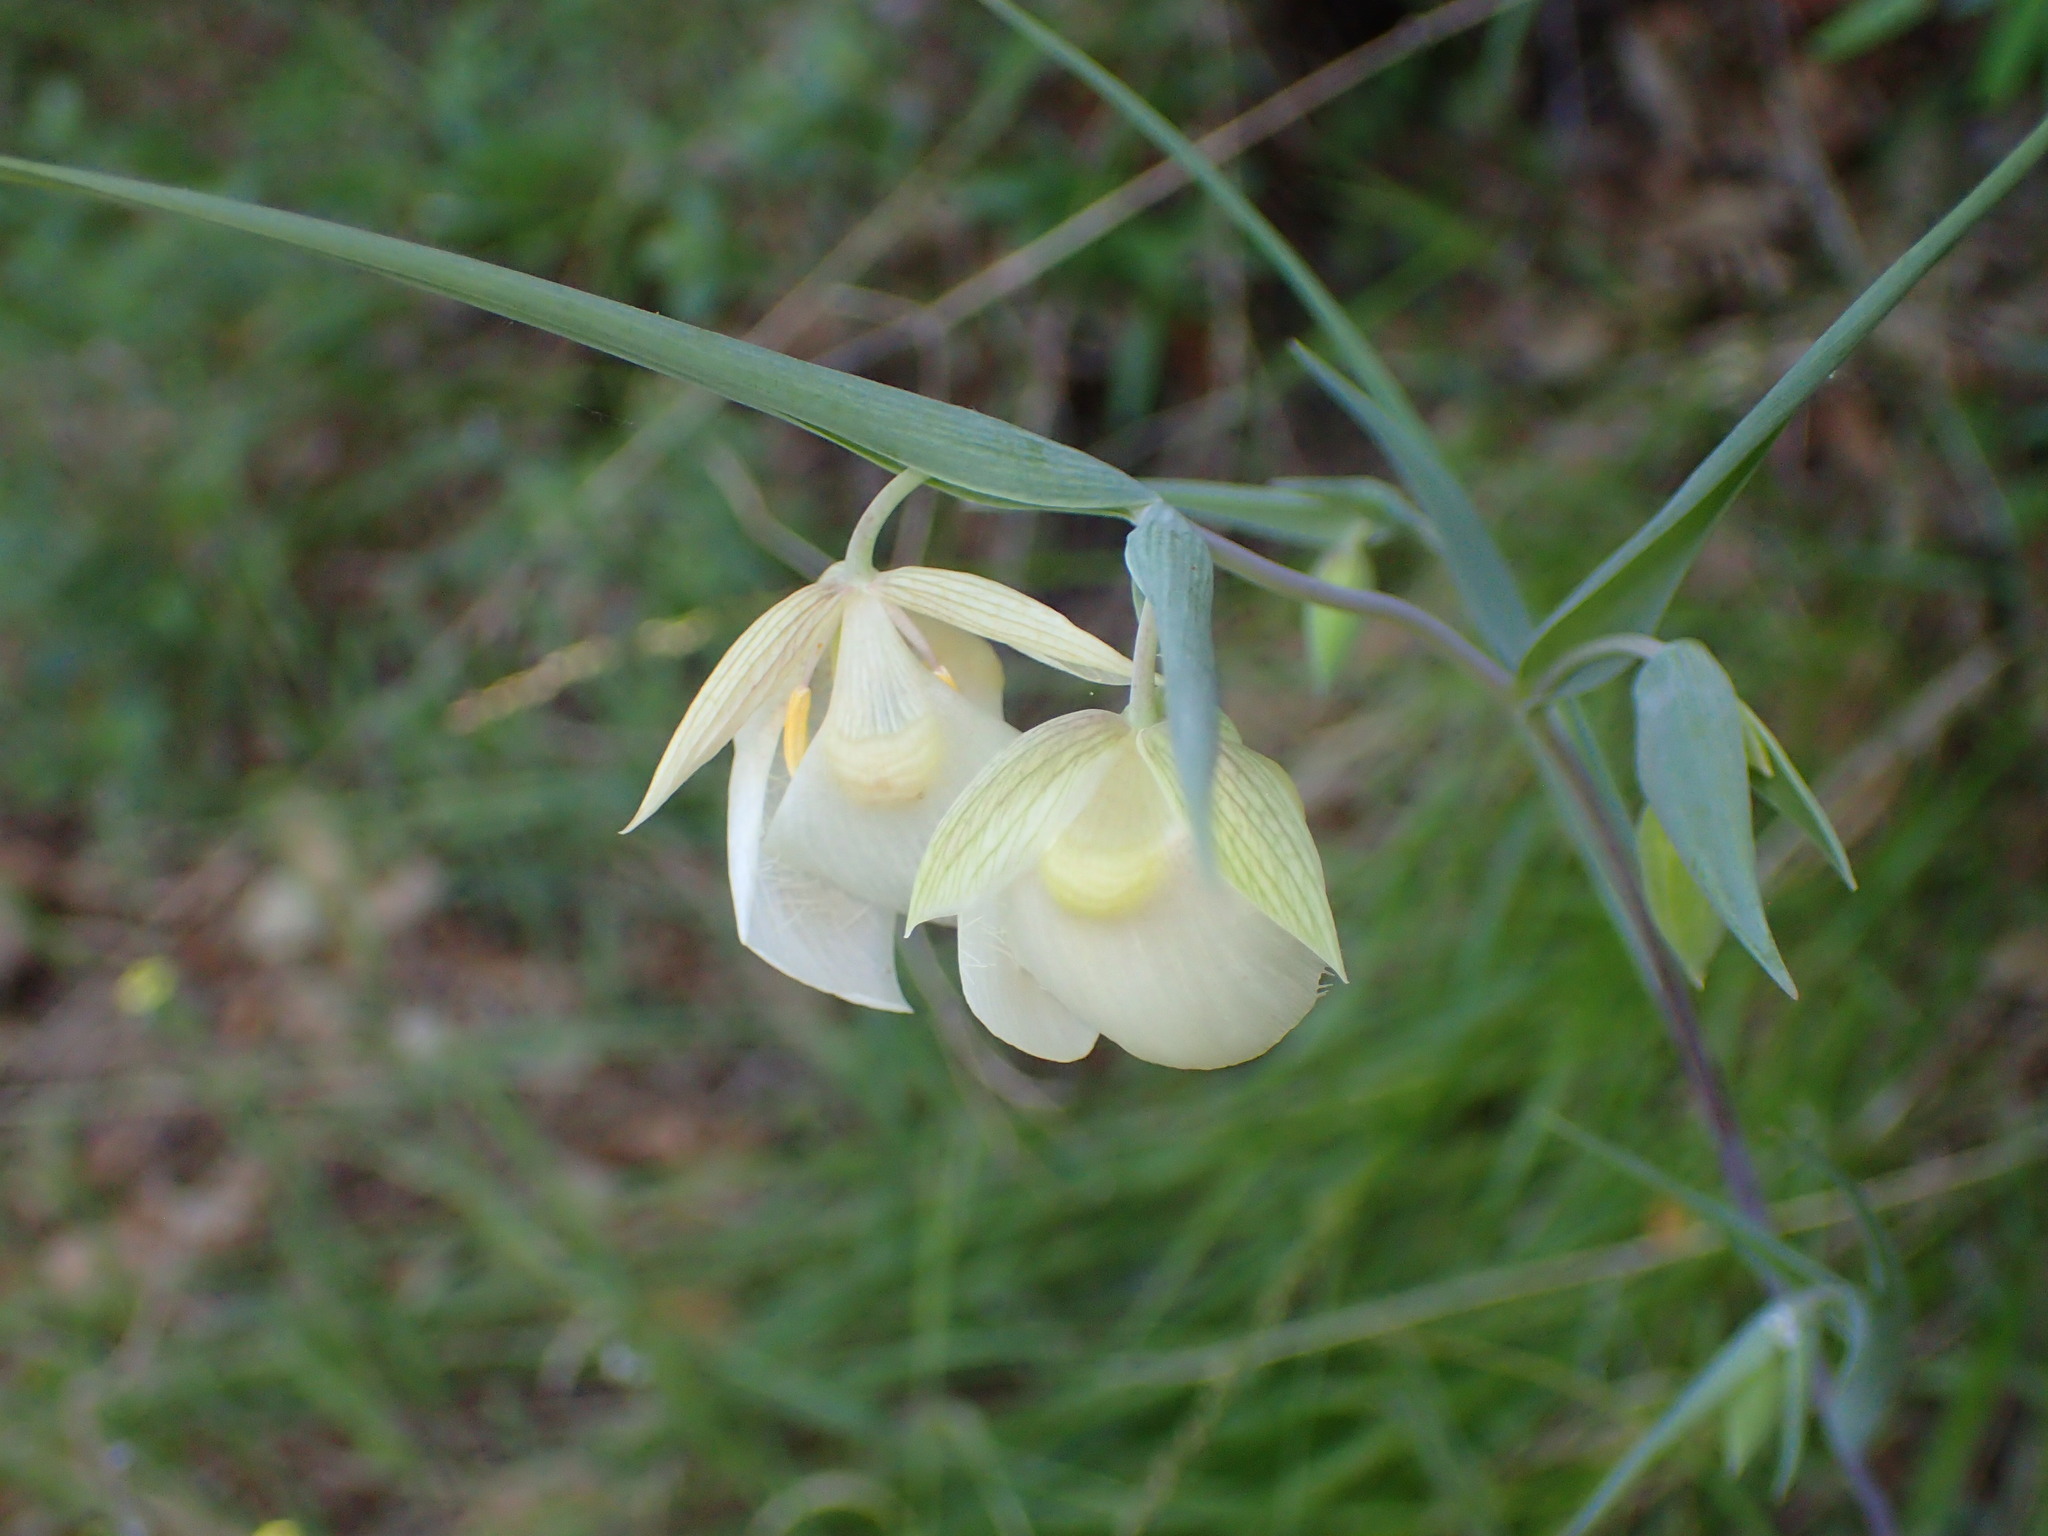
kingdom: Plantae
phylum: Tracheophyta
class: Liliopsida
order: Liliales
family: Liliaceae
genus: Calochortus
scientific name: Calochortus albus
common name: Fairy-lantern
